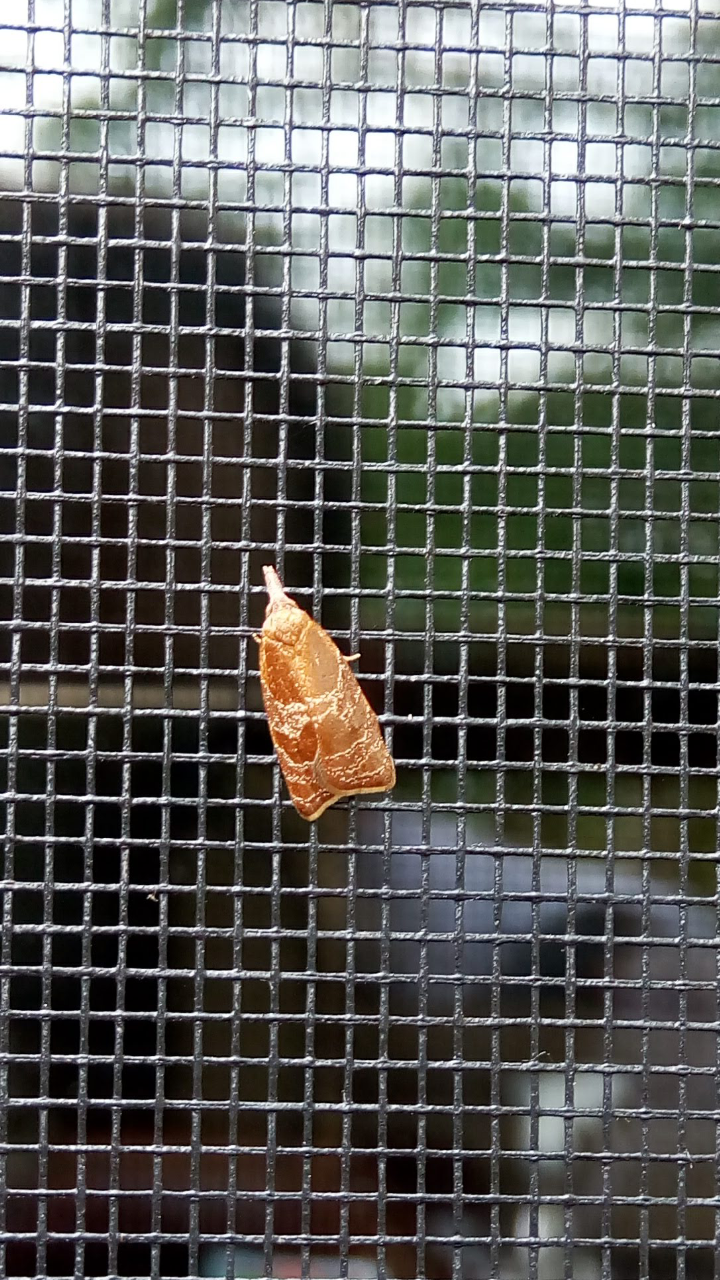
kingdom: Animalia
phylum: Arthropoda
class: Insecta
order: Lepidoptera
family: Tortricidae
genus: Cenopis
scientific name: Cenopis diluticostana
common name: Spring dead-leaf roller moth
